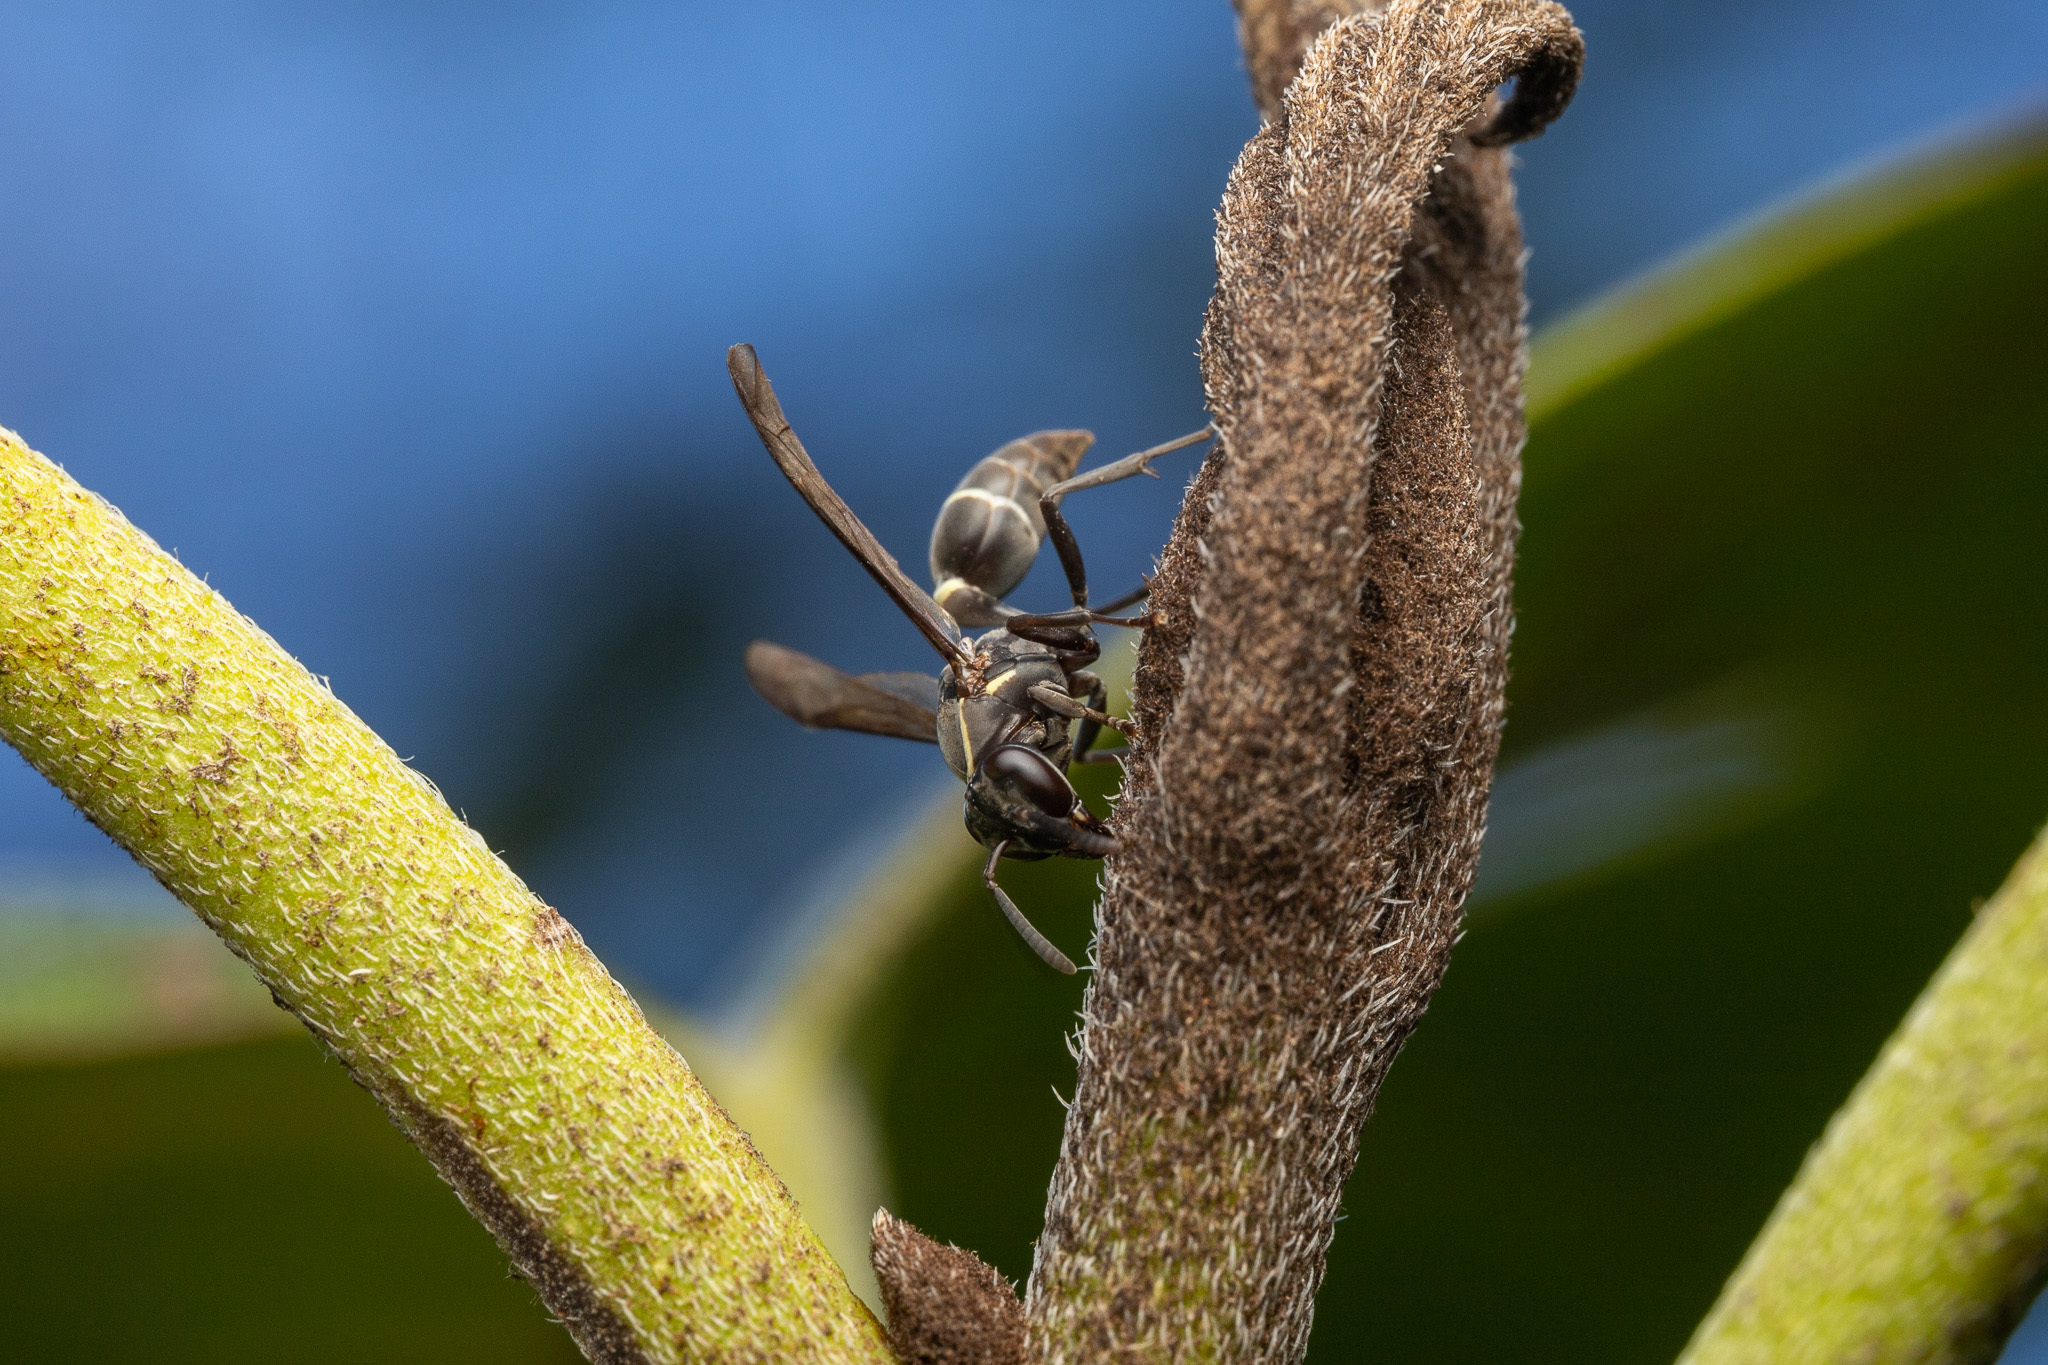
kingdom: Animalia
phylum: Arthropoda
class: Insecta
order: Hymenoptera
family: Eumenidae
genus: Polybia
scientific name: Polybia plebeja
